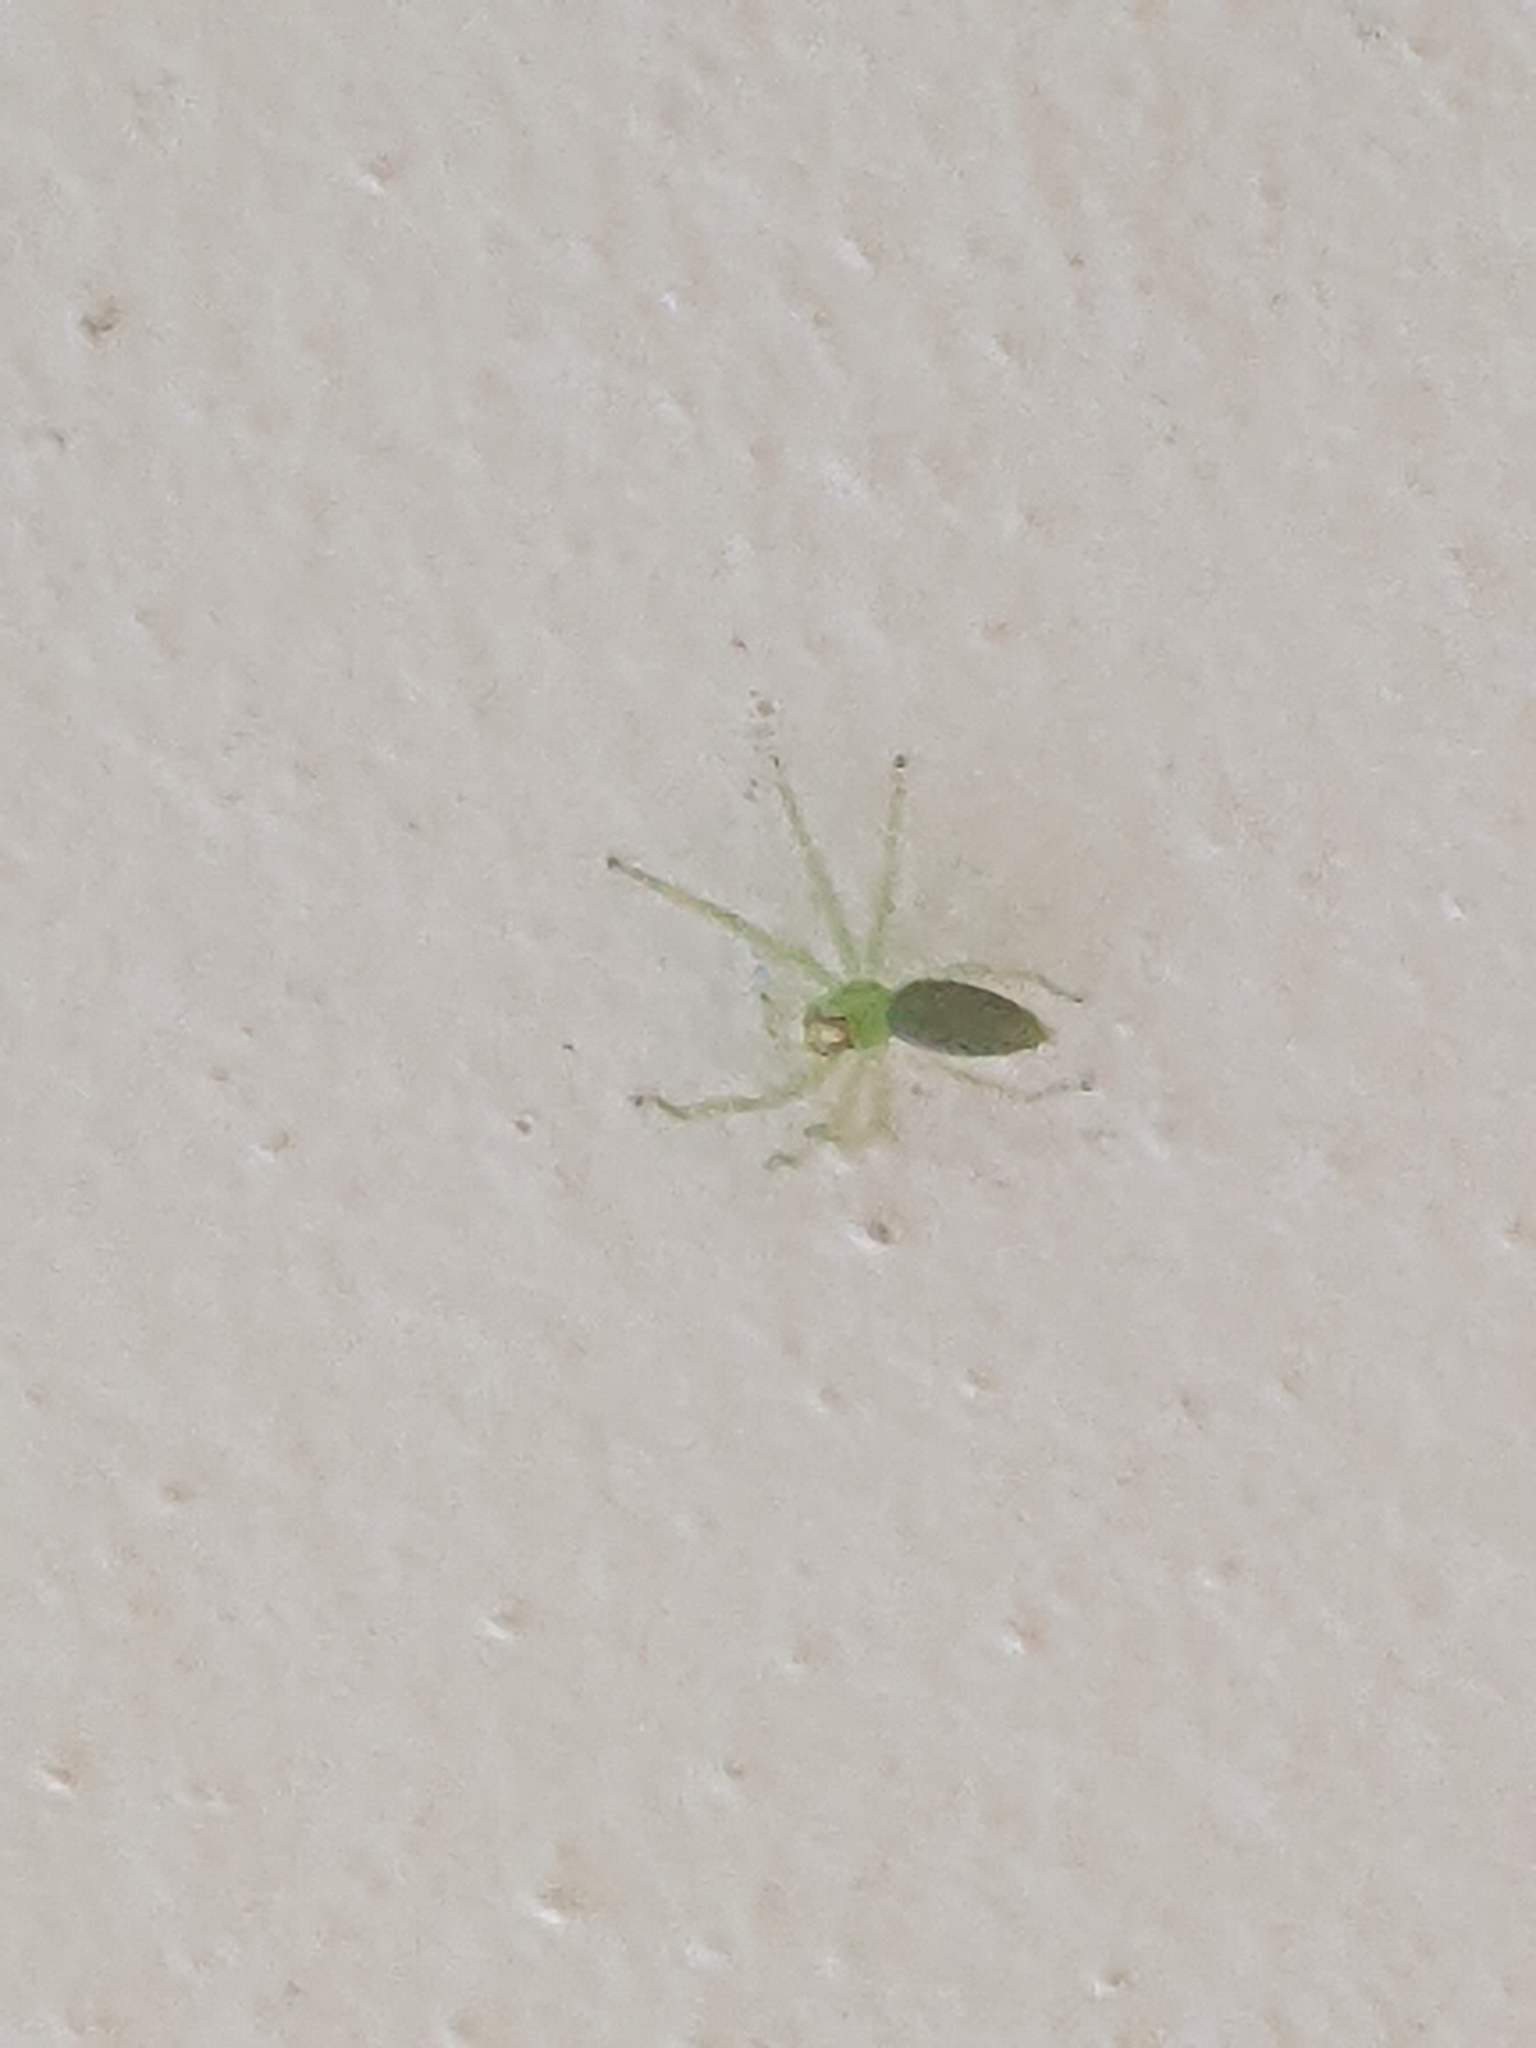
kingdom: Animalia
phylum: Arthropoda
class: Arachnida
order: Araneae
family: Salticidae
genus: Lyssomanes
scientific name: Lyssomanes viridis
